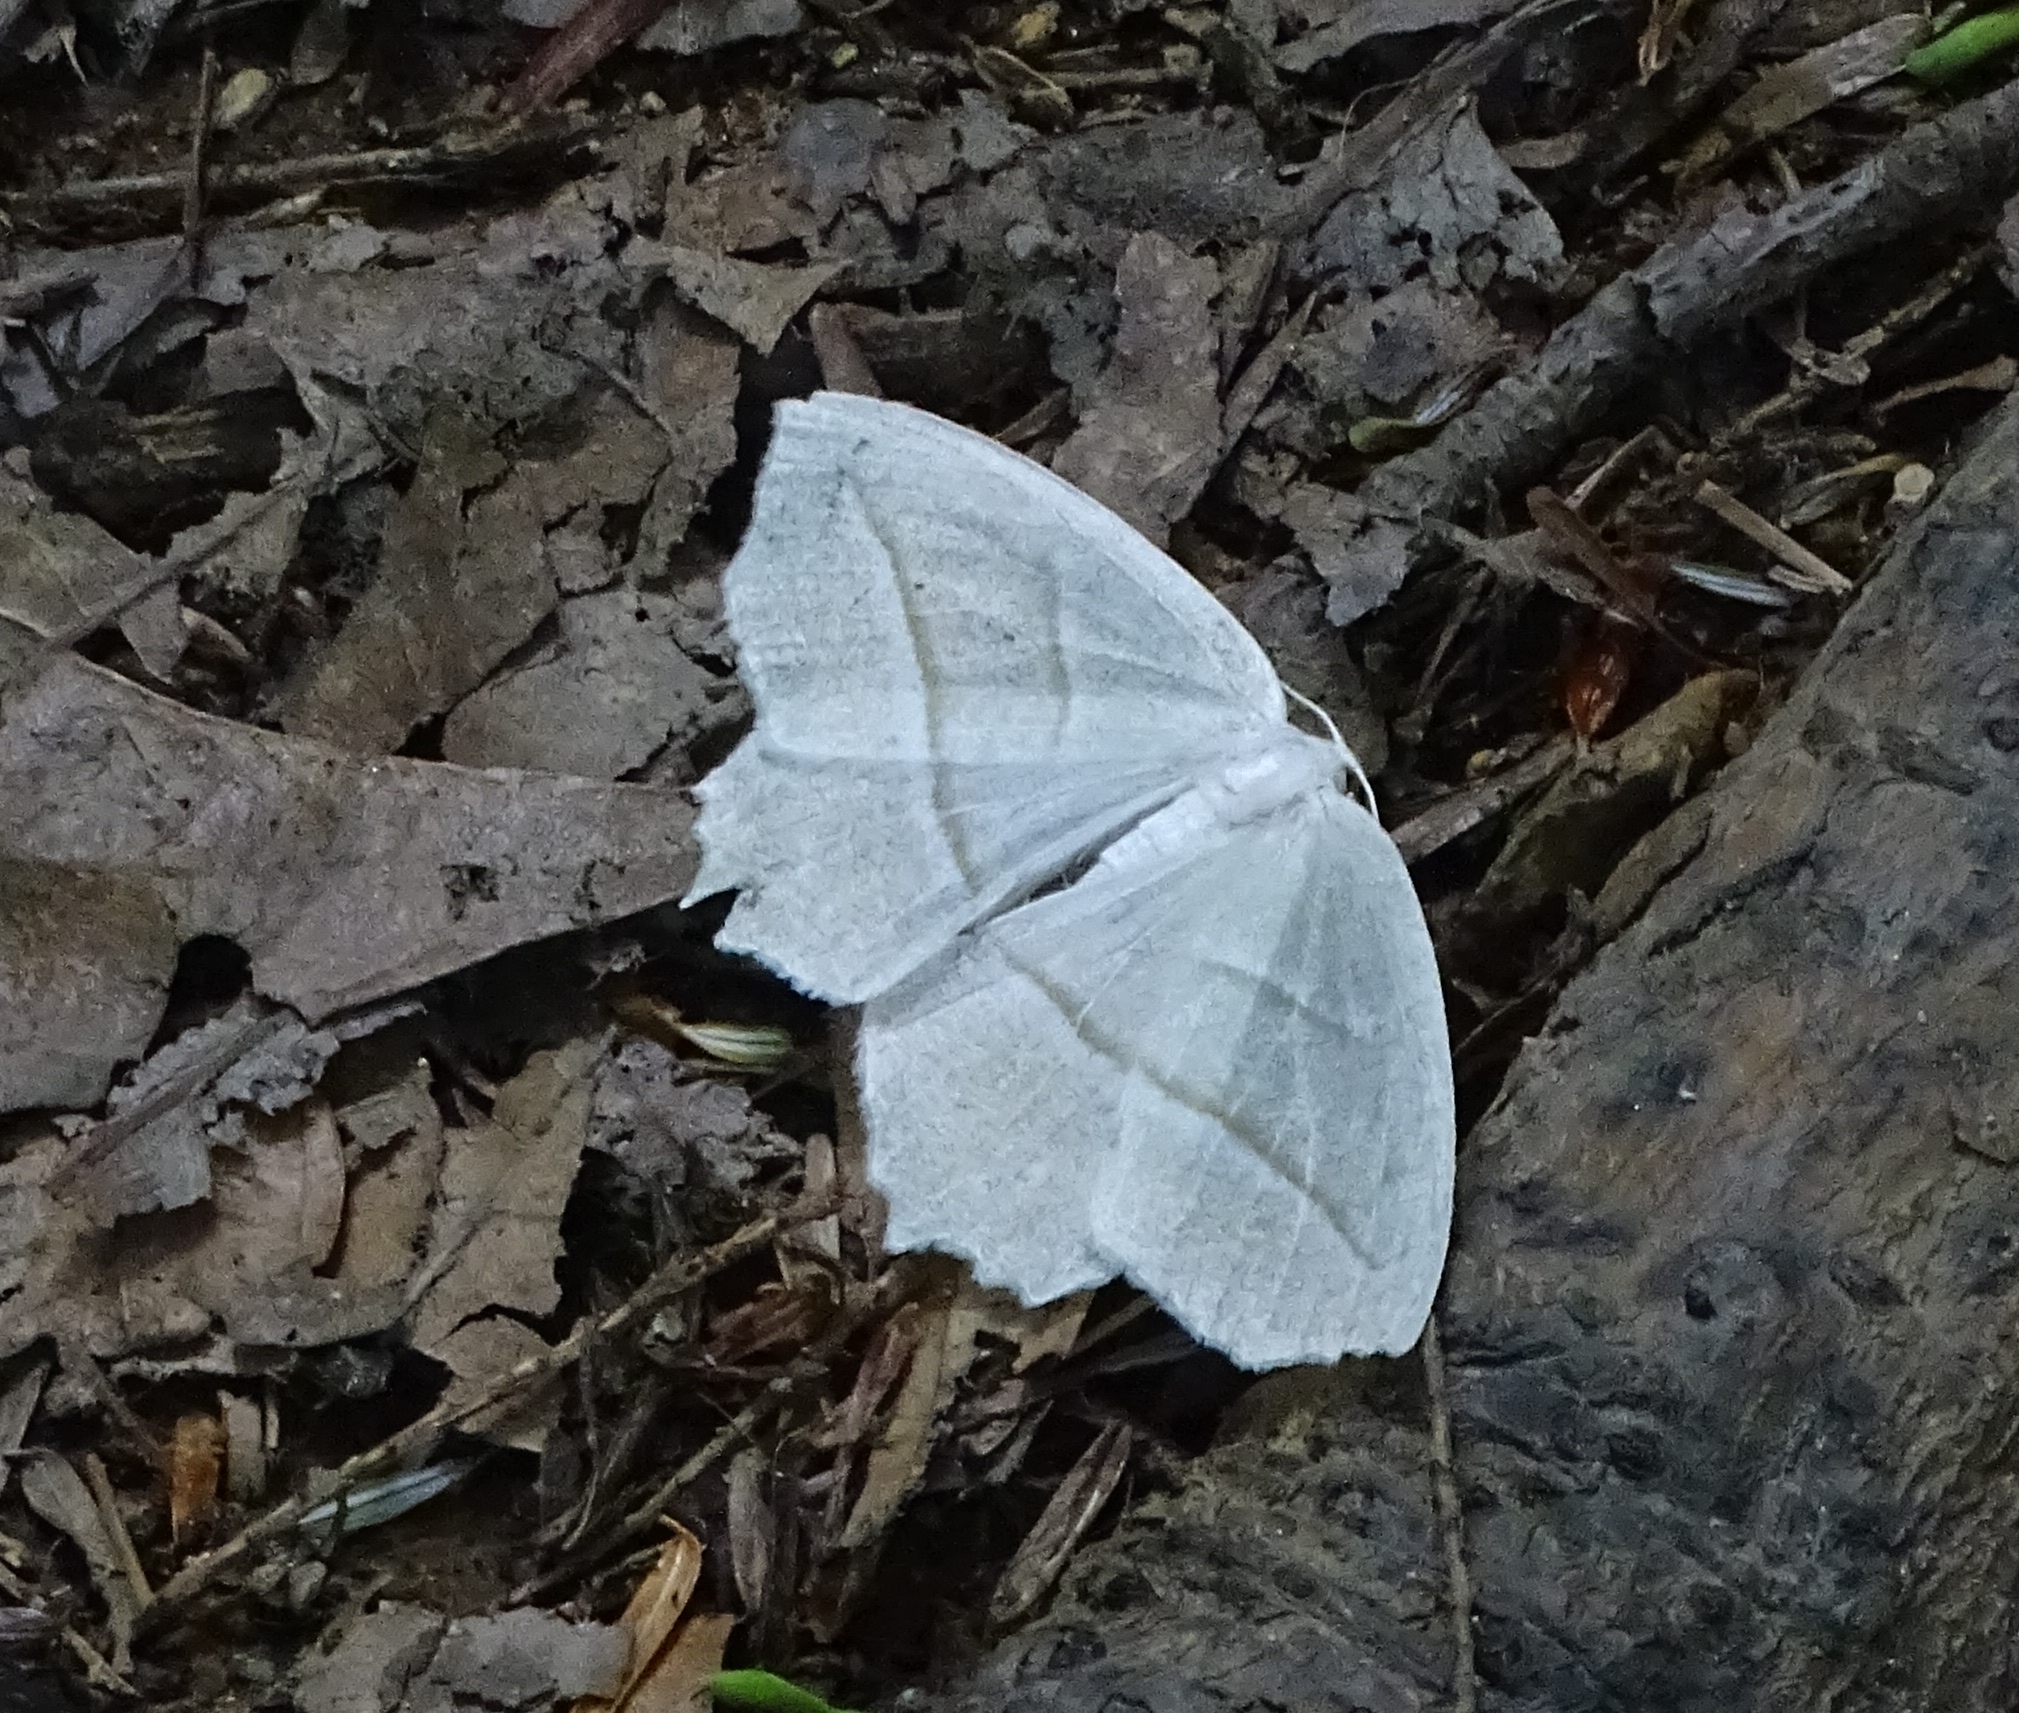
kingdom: Animalia
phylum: Arthropoda
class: Insecta
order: Lepidoptera
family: Geometridae
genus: Campaea
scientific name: Campaea perlata
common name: Fringed looper
